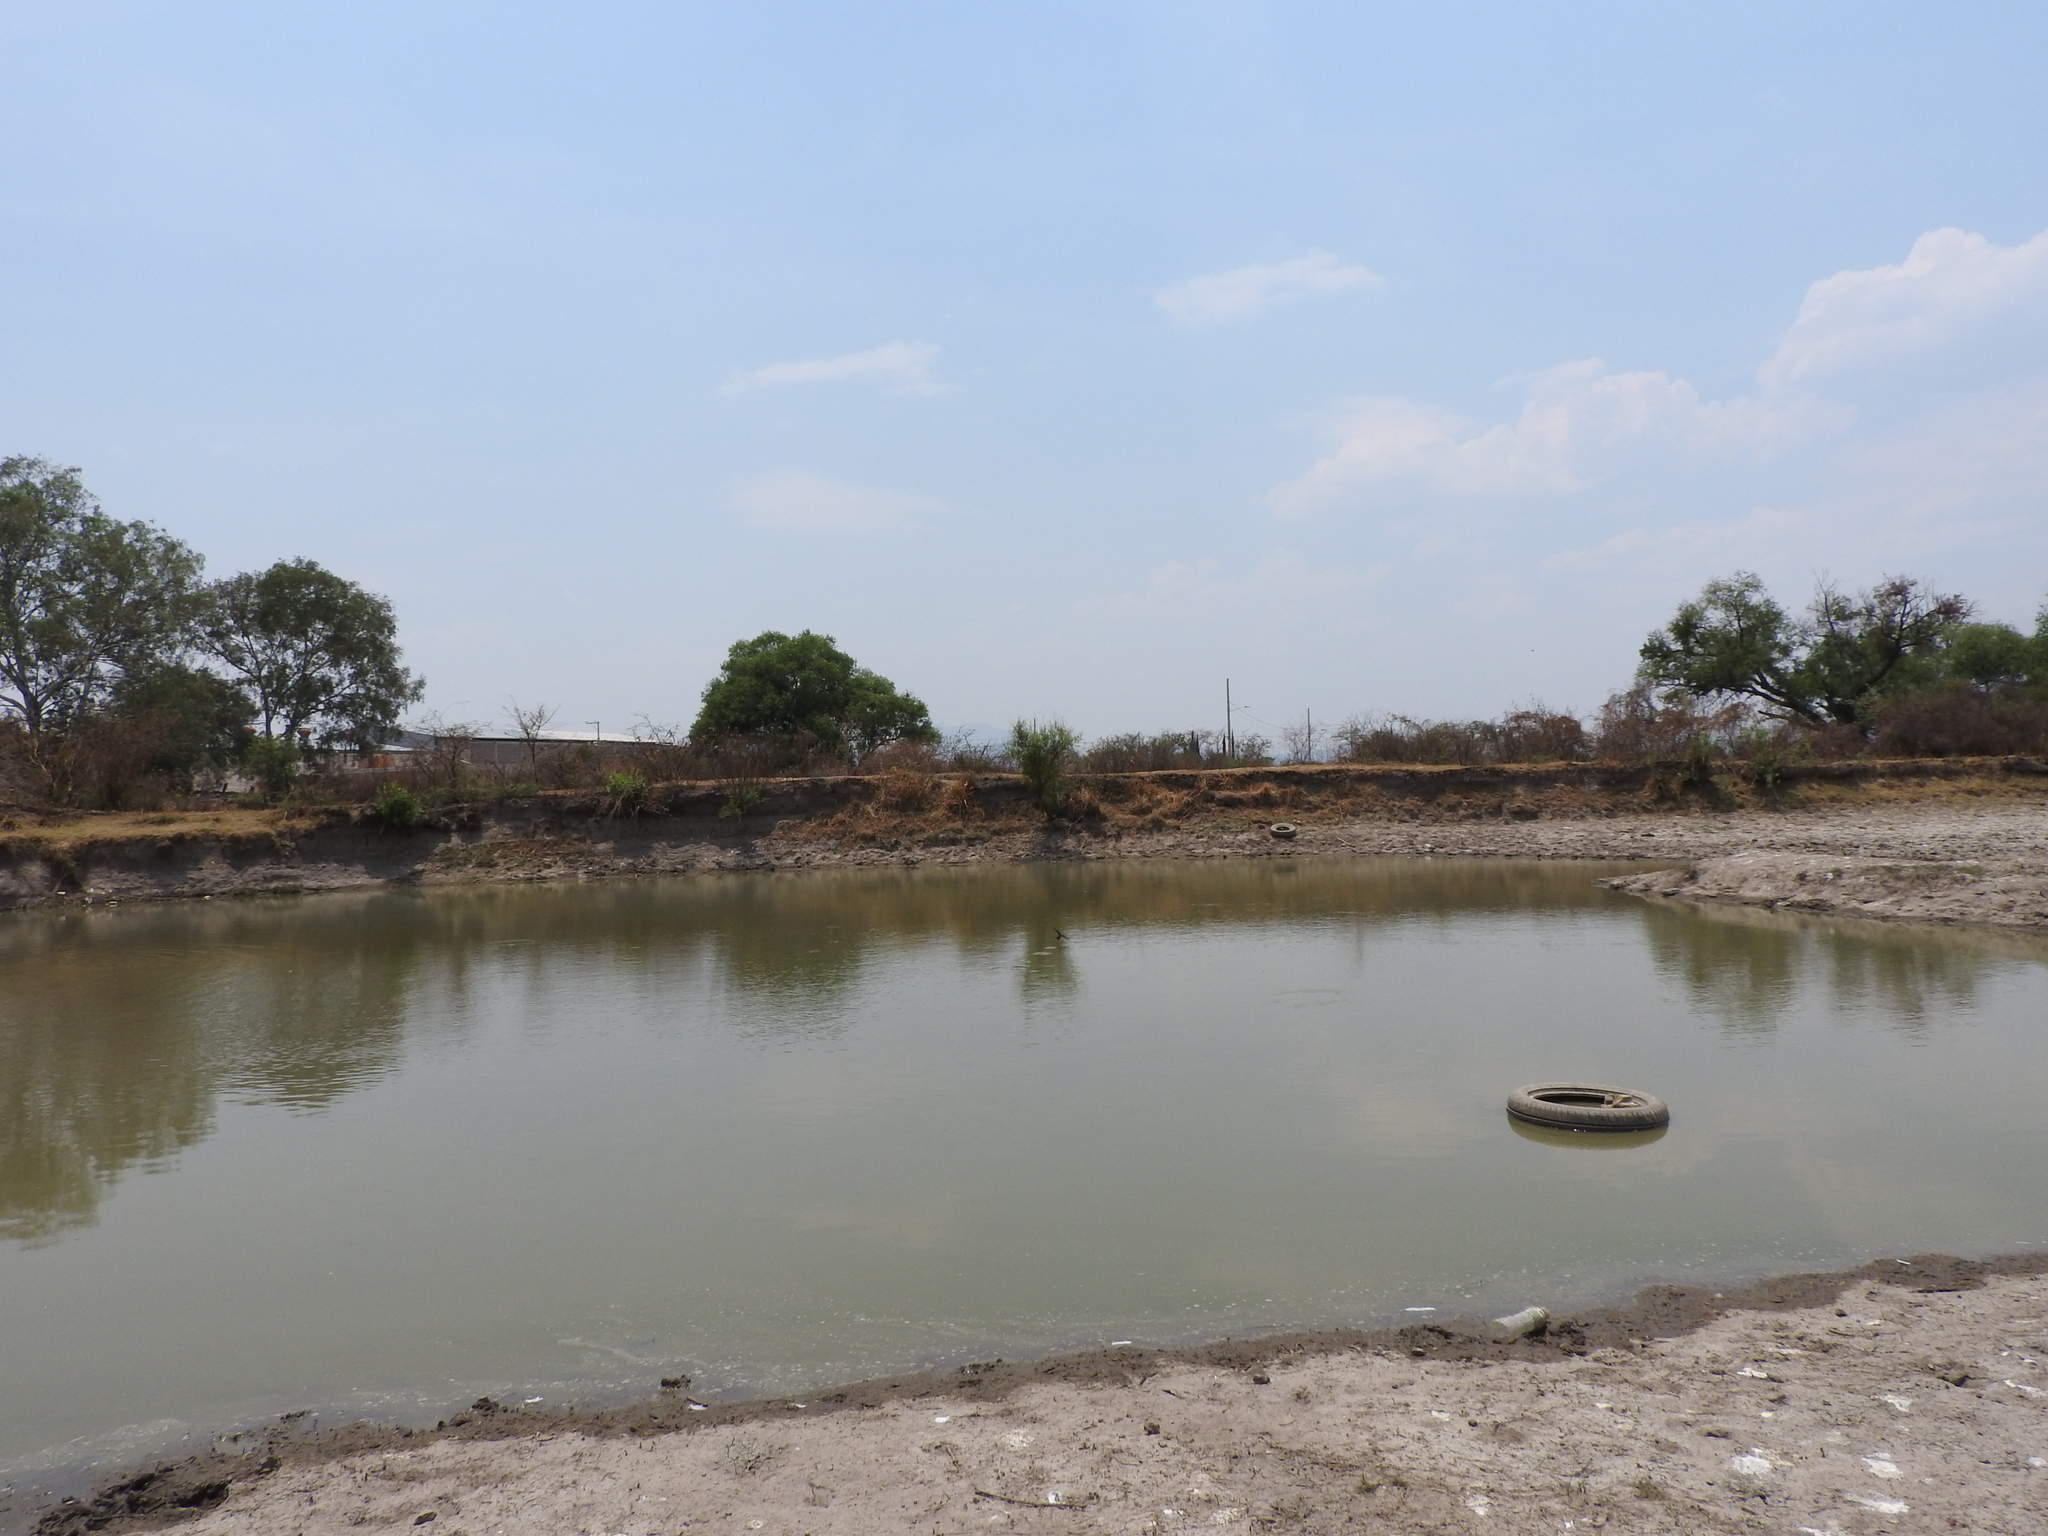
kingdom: Animalia
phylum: Chordata
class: Aves
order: Passeriformes
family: Hirundinidae
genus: Hirundo
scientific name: Hirundo rustica
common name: Barn swallow
